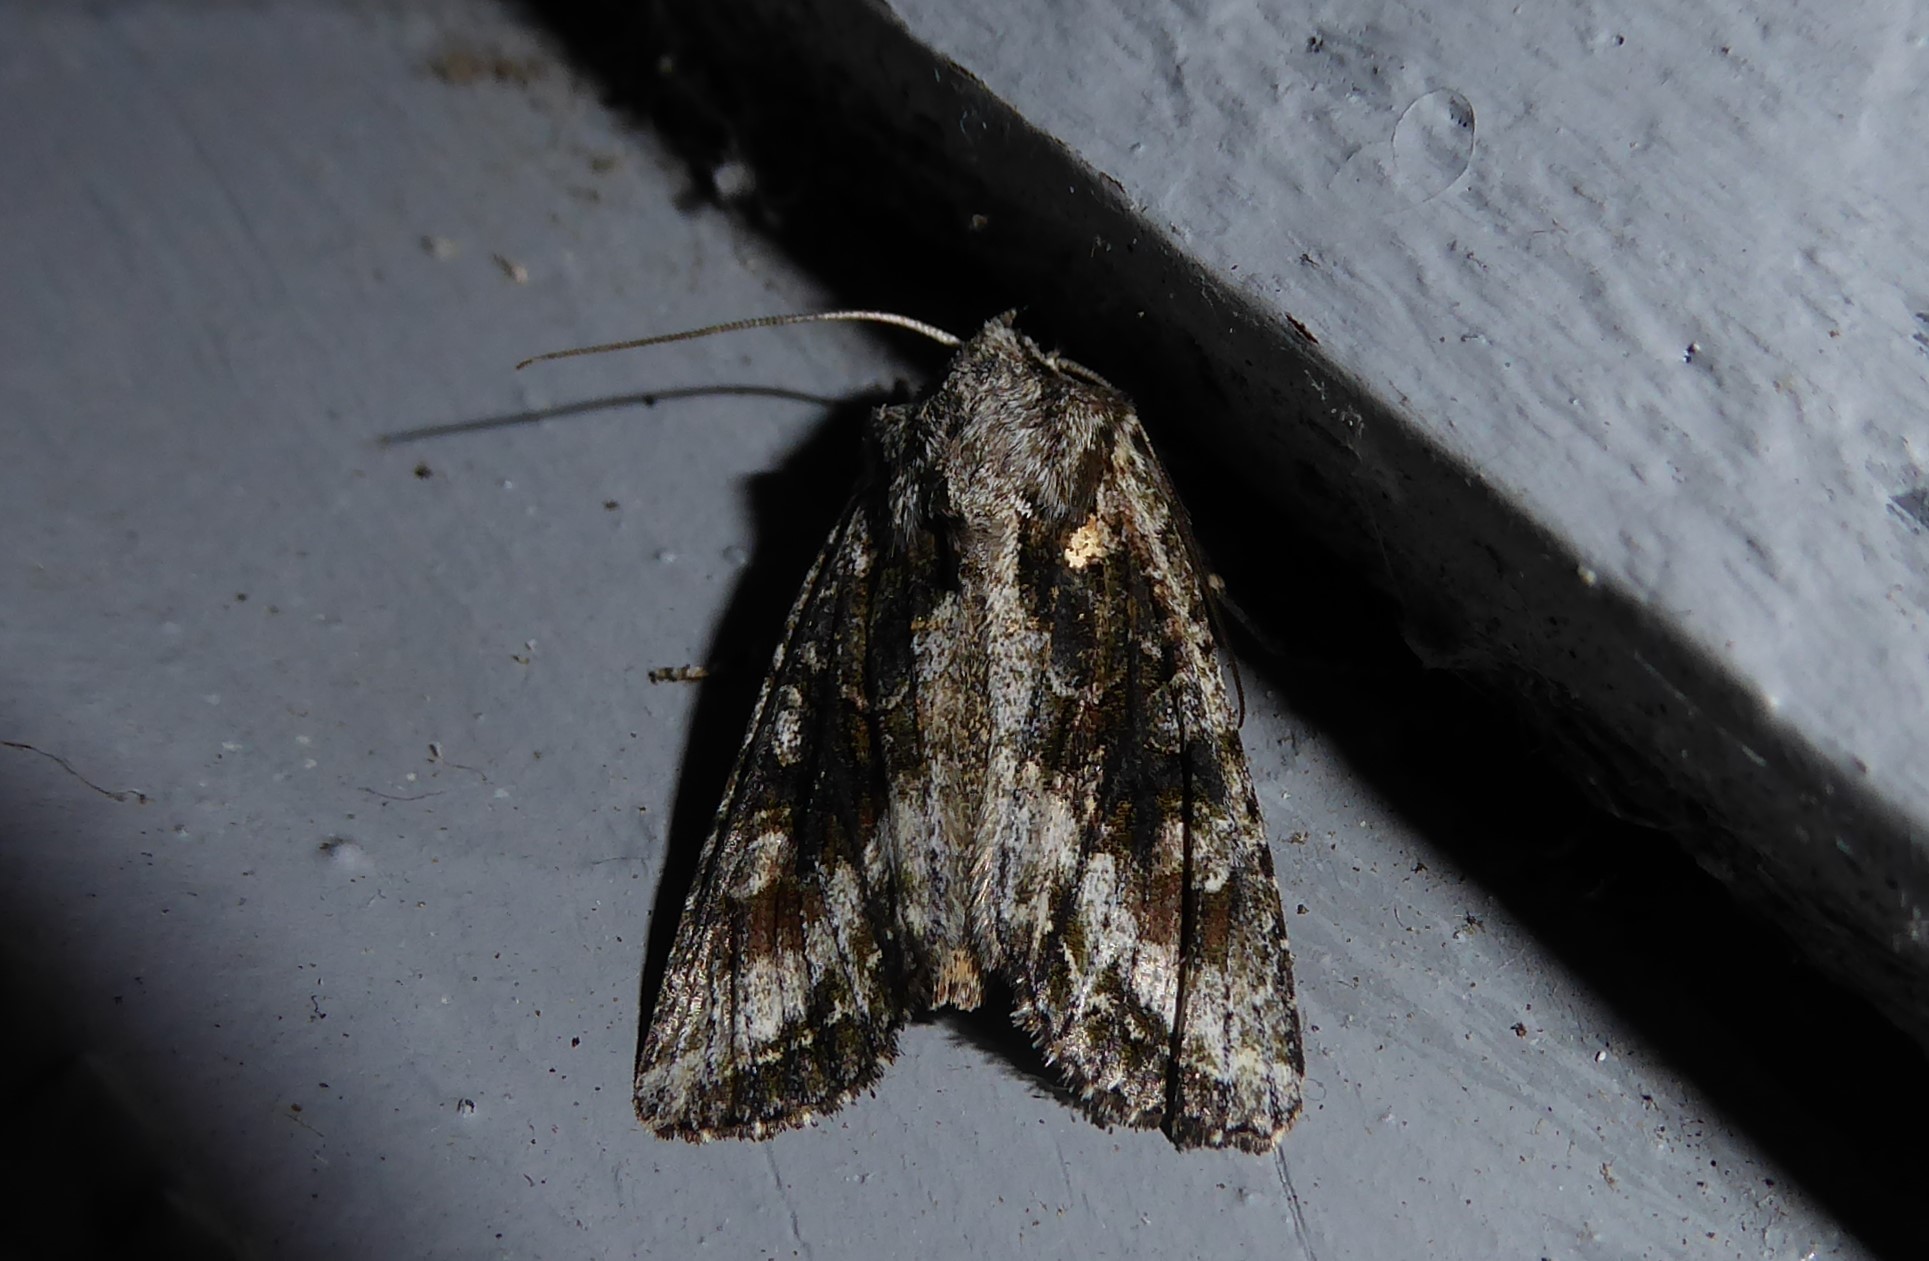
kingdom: Animalia
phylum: Arthropoda
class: Insecta
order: Lepidoptera
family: Noctuidae
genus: Ichneutica
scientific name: Ichneutica mutans
